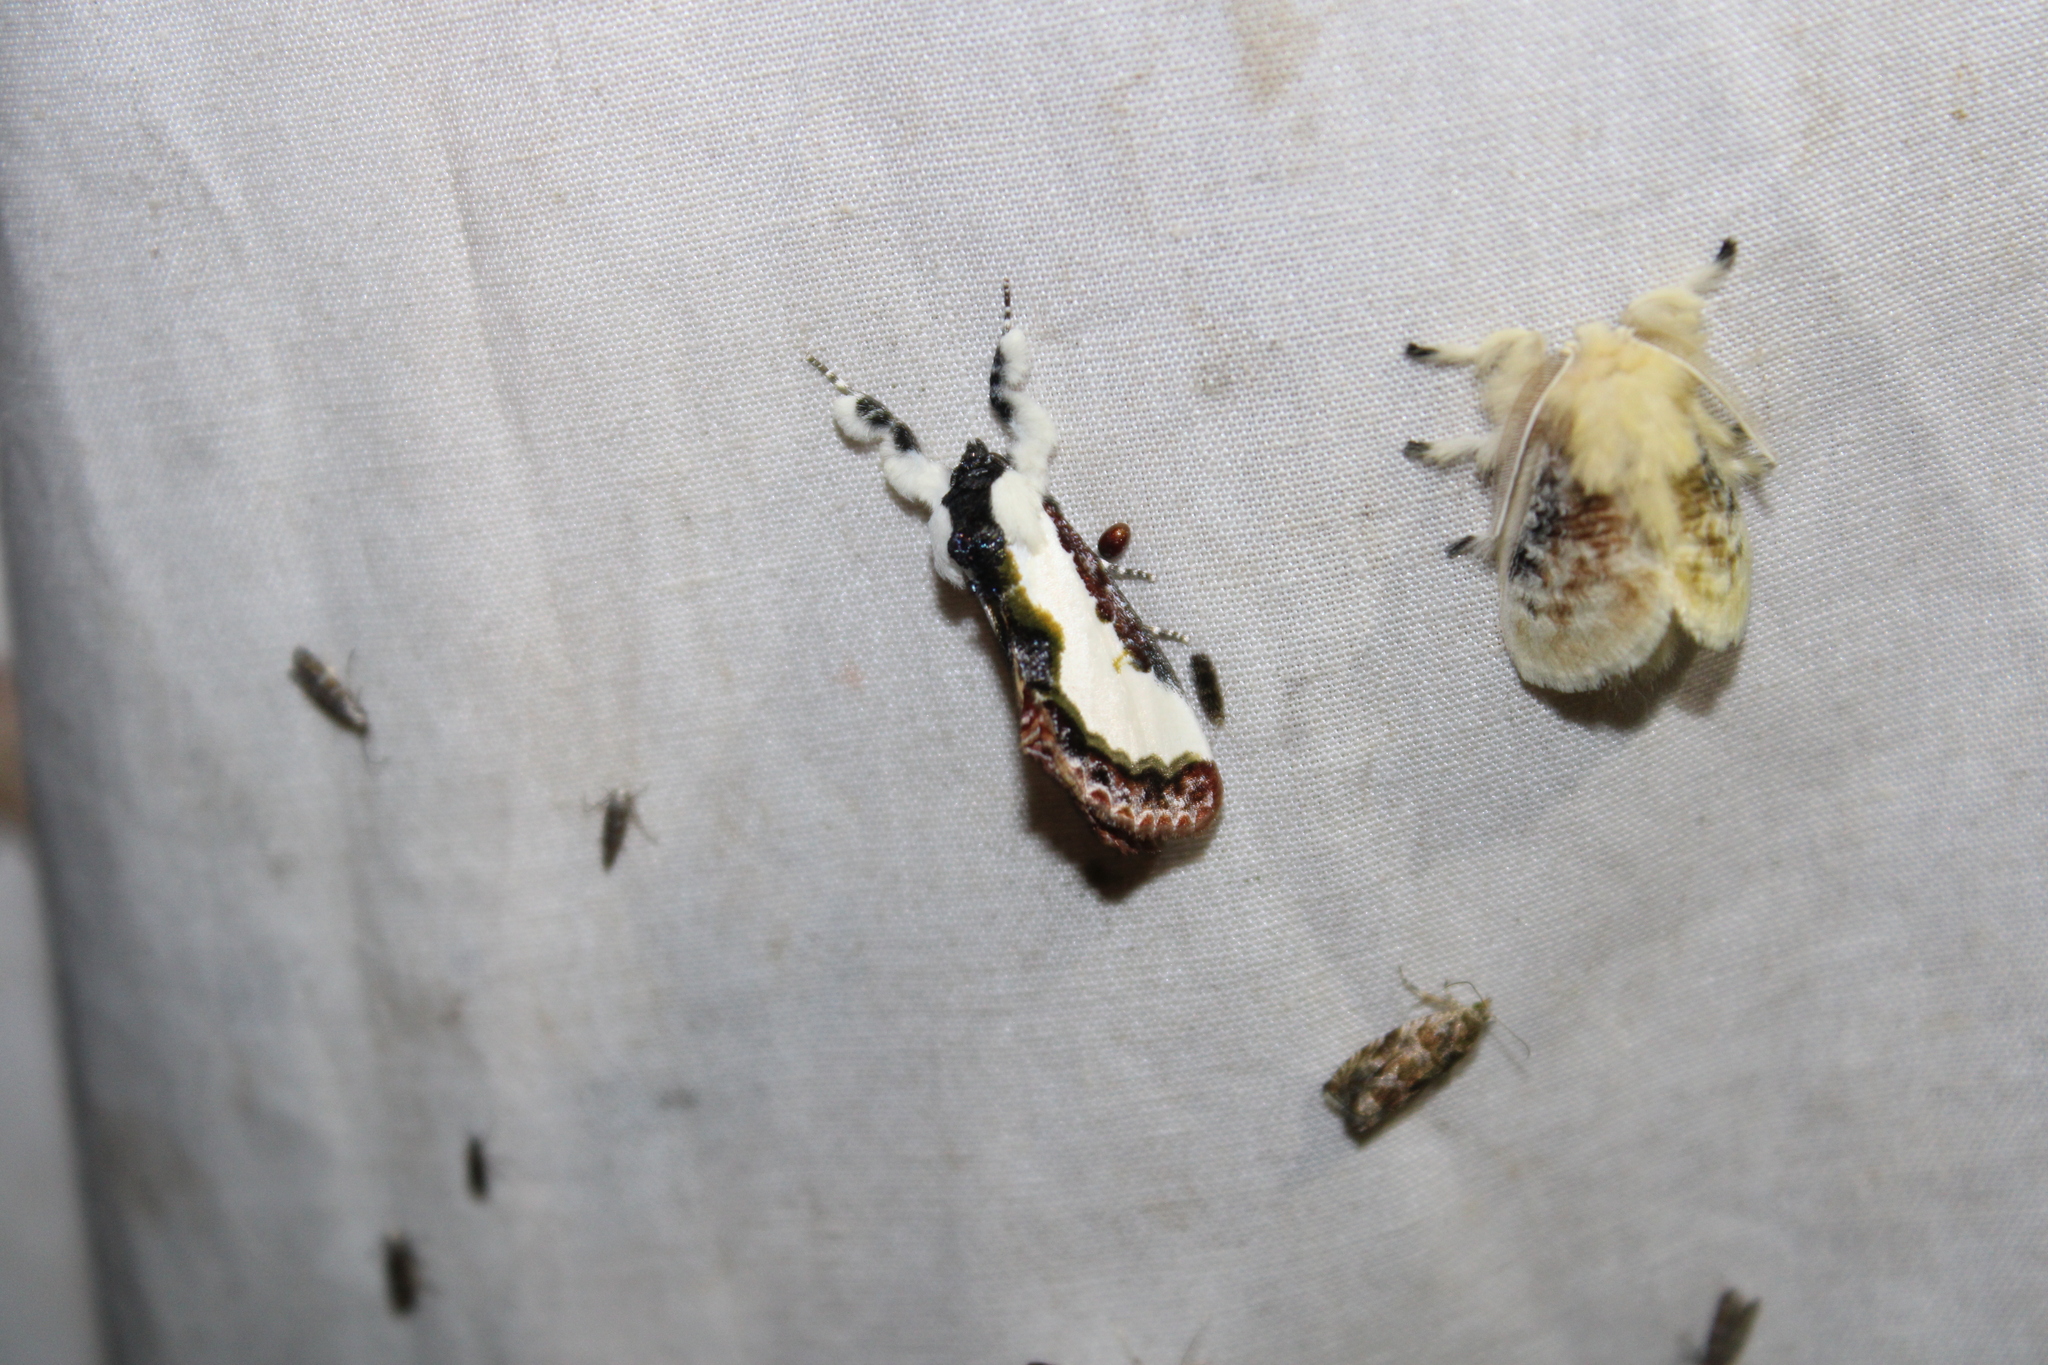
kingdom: Animalia
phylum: Arthropoda
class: Insecta
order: Lepidoptera
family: Noctuidae
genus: Eudryas
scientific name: Eudryas unio
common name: Pearly wood-nymph
